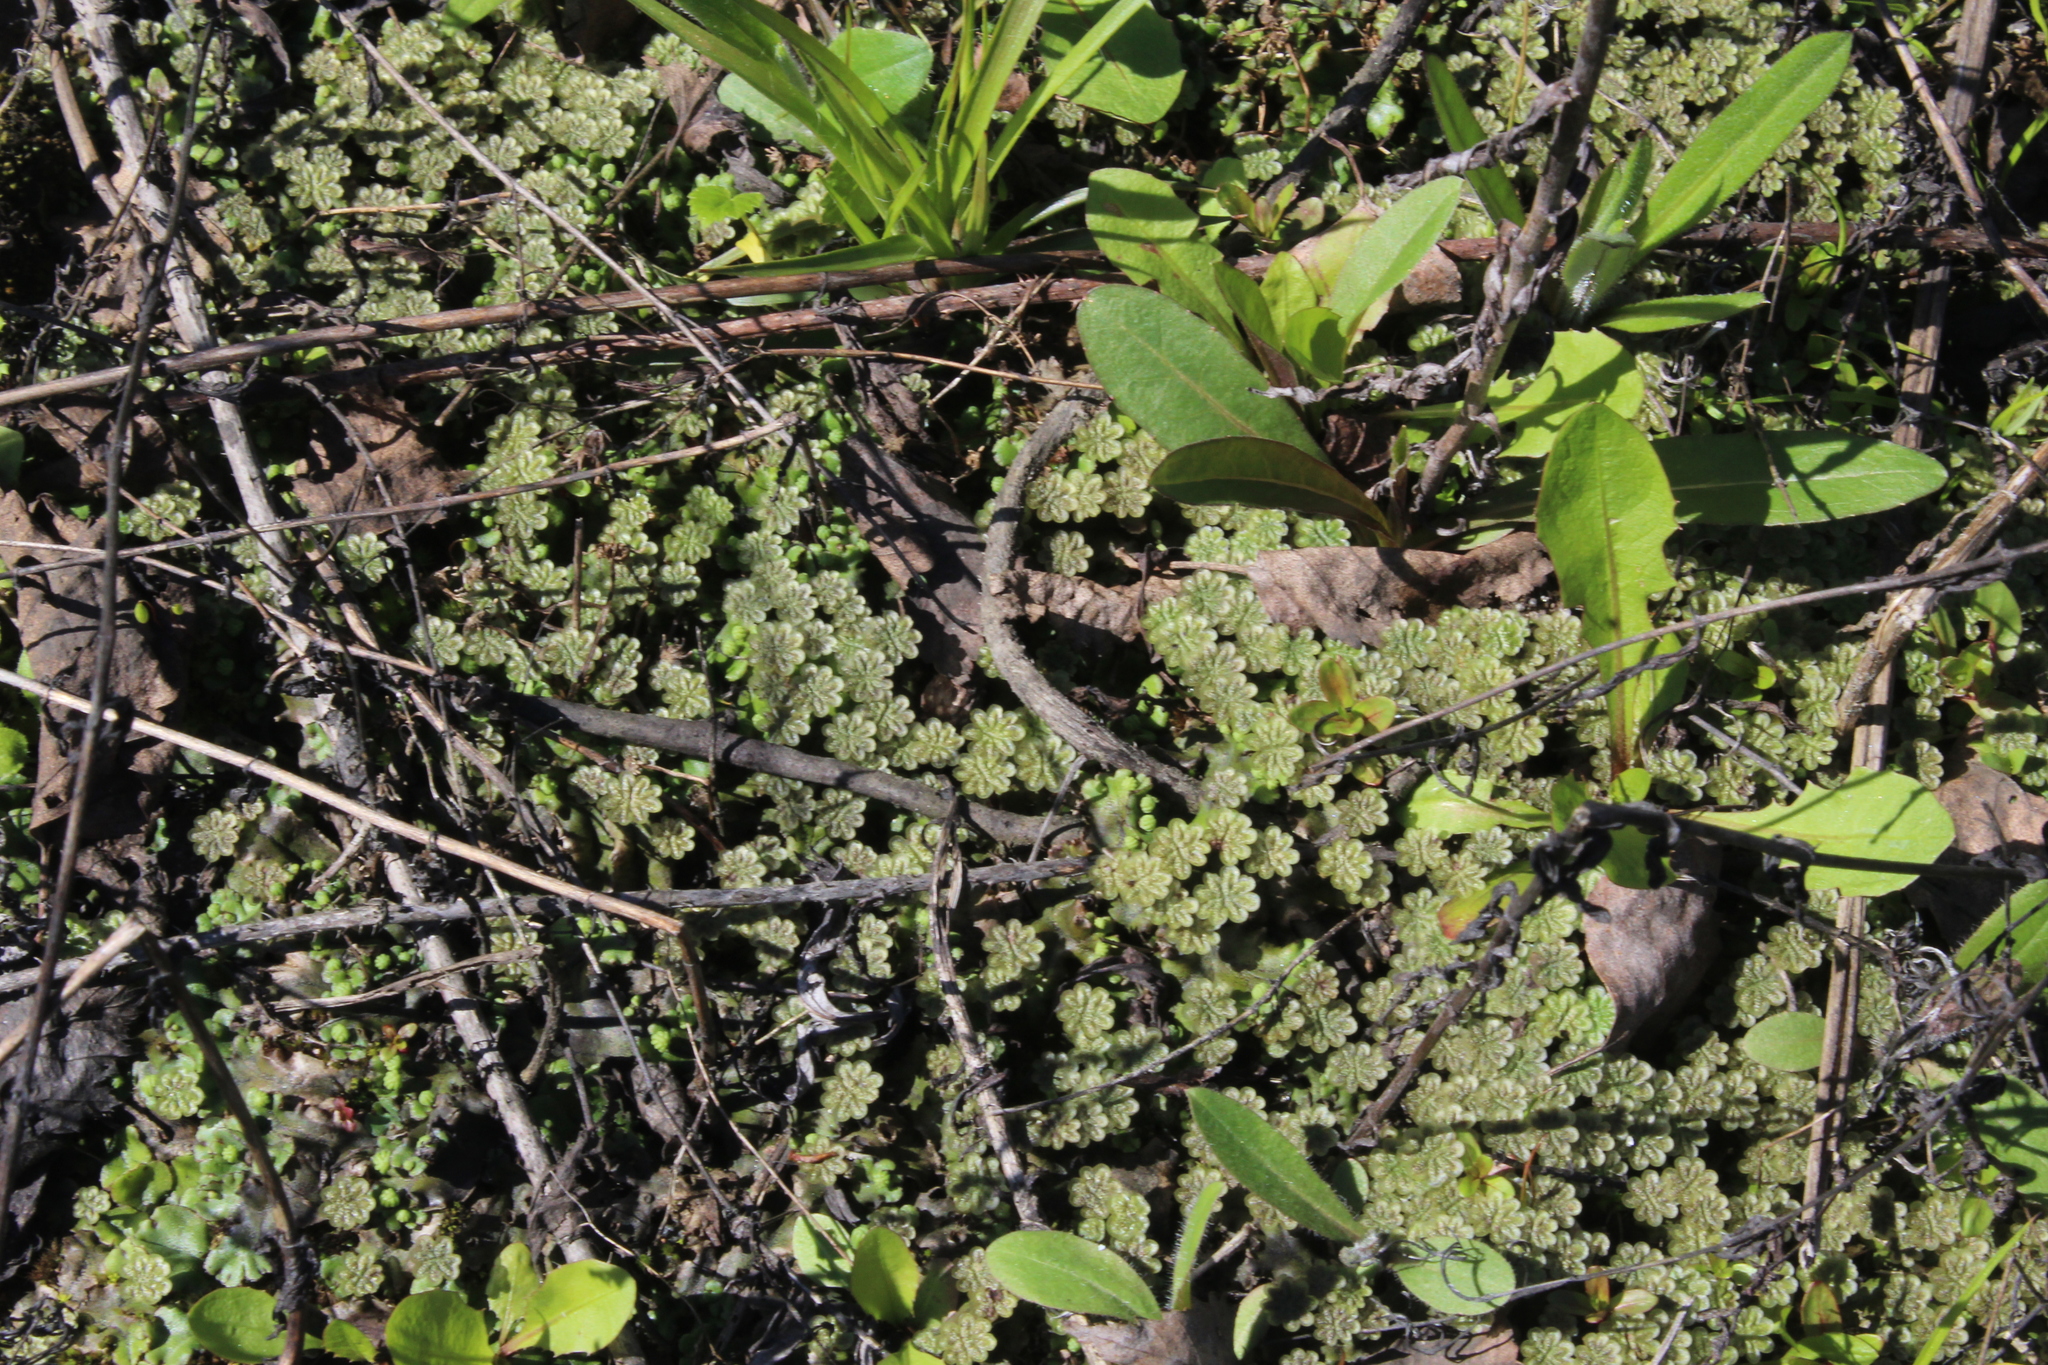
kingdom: Plantae
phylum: Marchantiophyta
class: Marchantiopsida
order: Marchantiales
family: Marchantiaceae
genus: Marchantia
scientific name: Marchantia polymorpha
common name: Common liverwort
